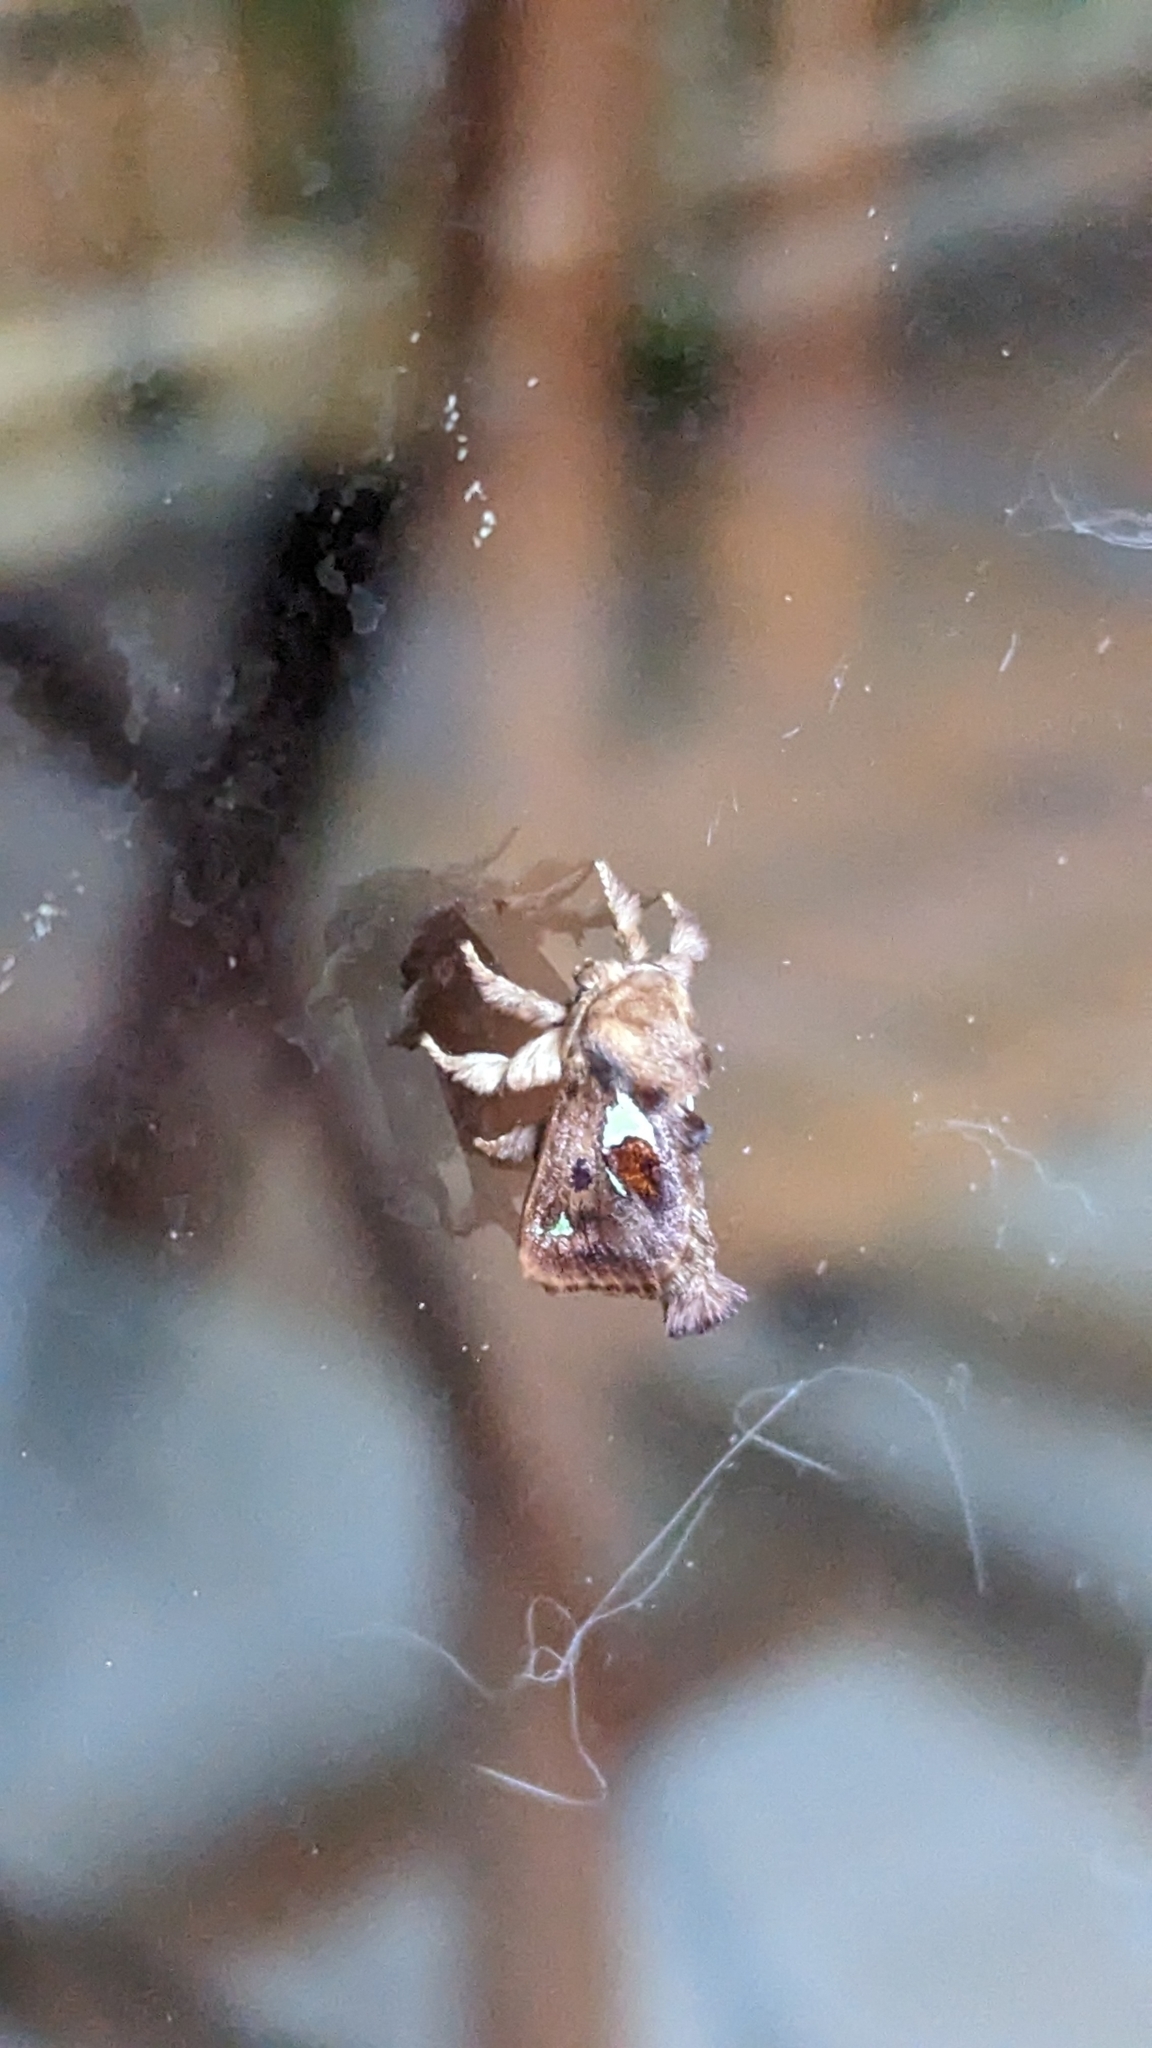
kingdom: Animalia
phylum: Arthropoda
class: Insecta
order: Lepidoptera
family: Limacodidae
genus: Euclea
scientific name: Euclea delphinii
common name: Spiny oak-slug moth
